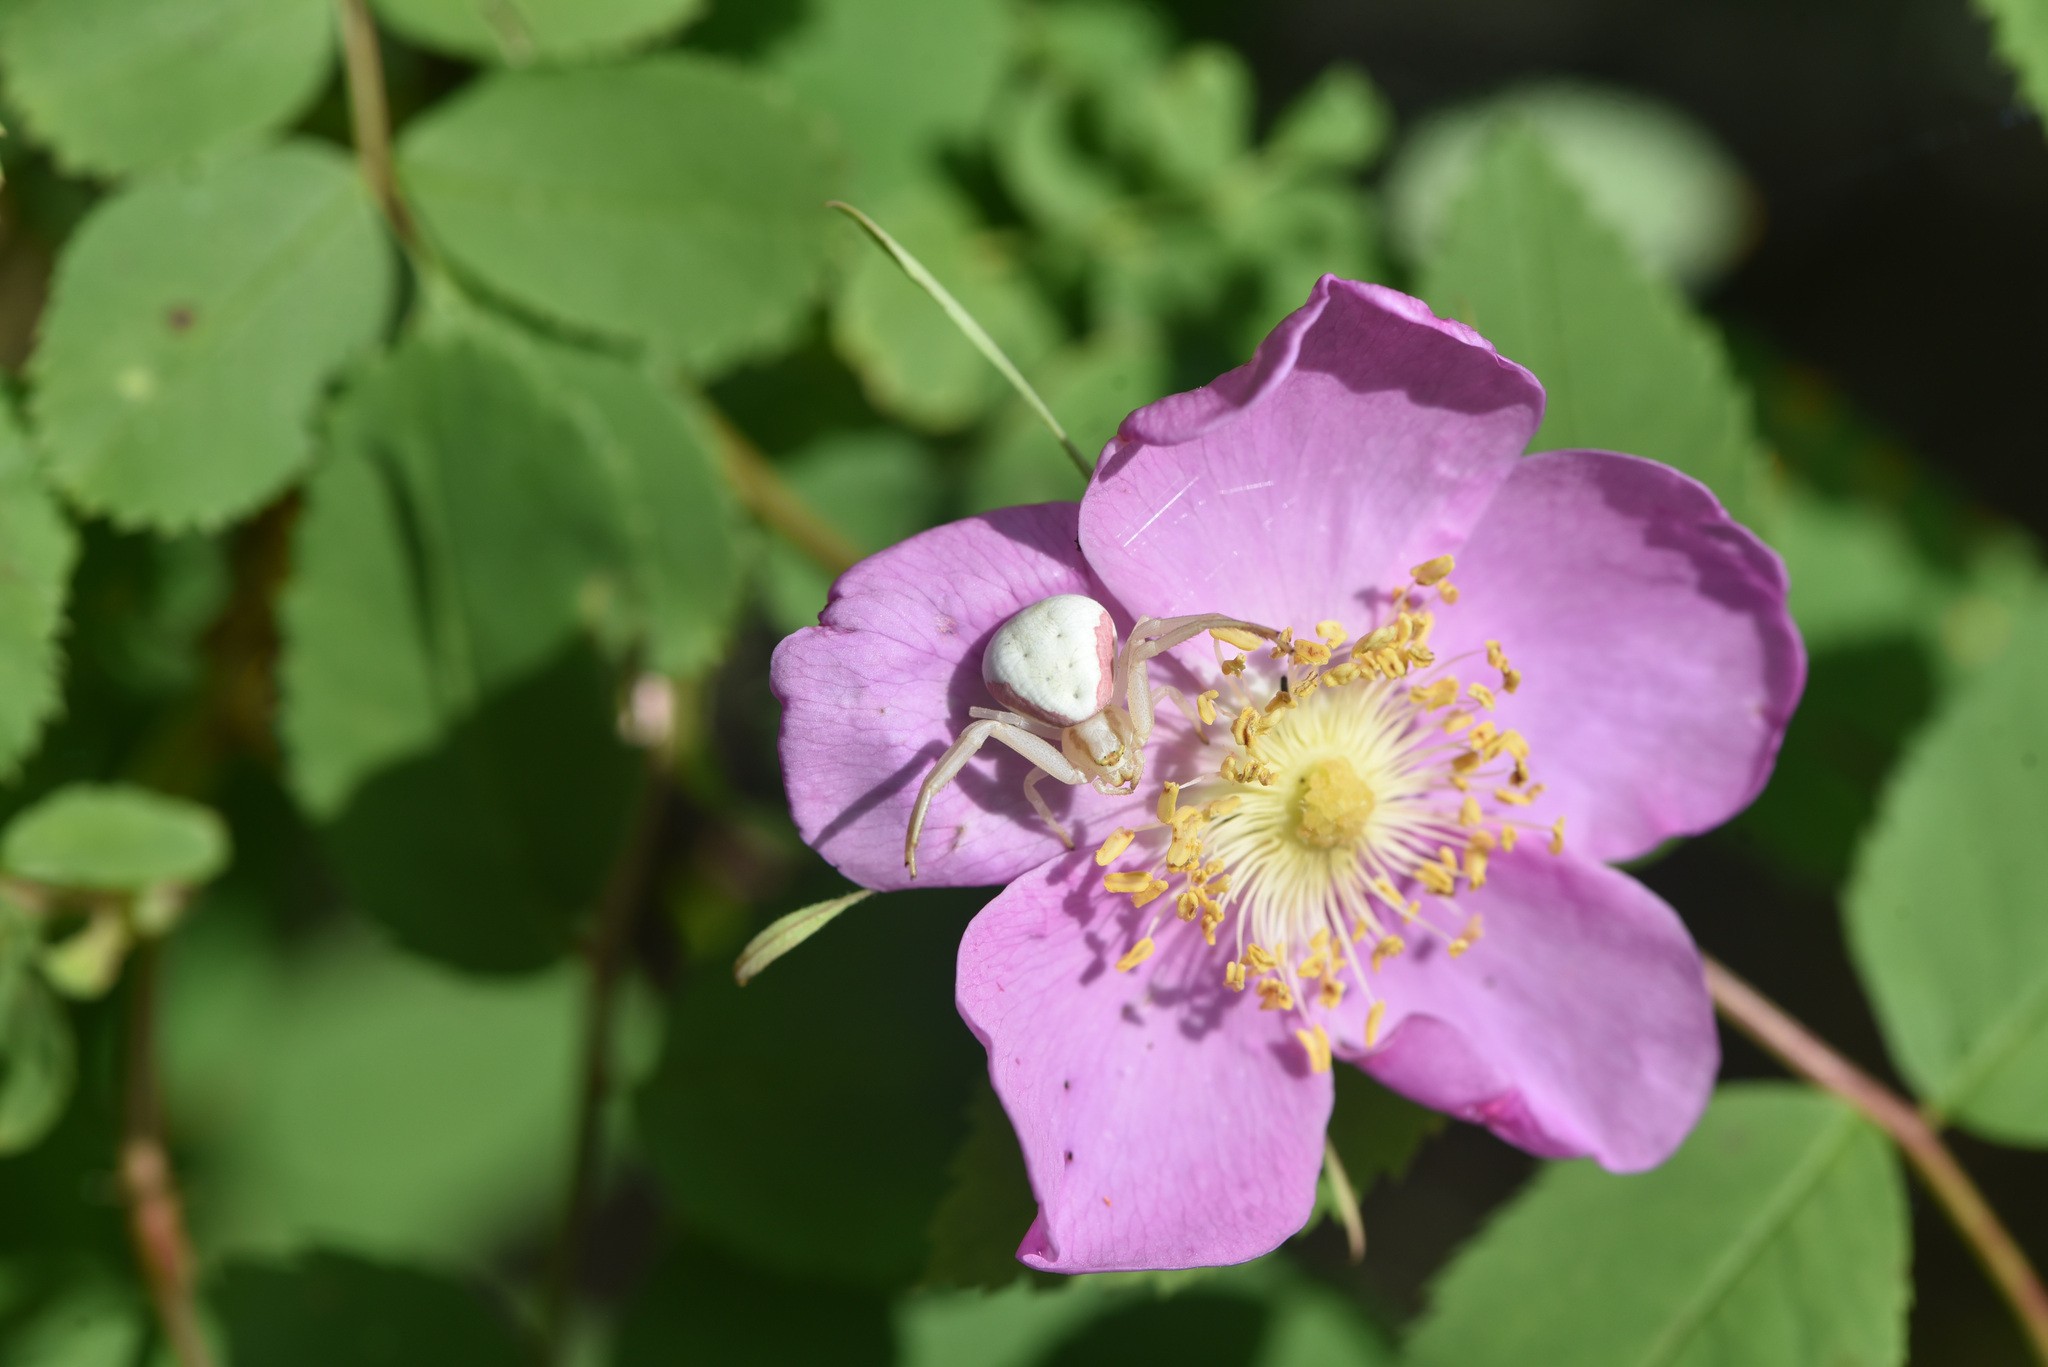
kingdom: Animalia
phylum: Arthropoda
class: Arachnida
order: Araneae
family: Thomisidae
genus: Misumena
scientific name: Misumena vatia
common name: Goldenrod crab spider
